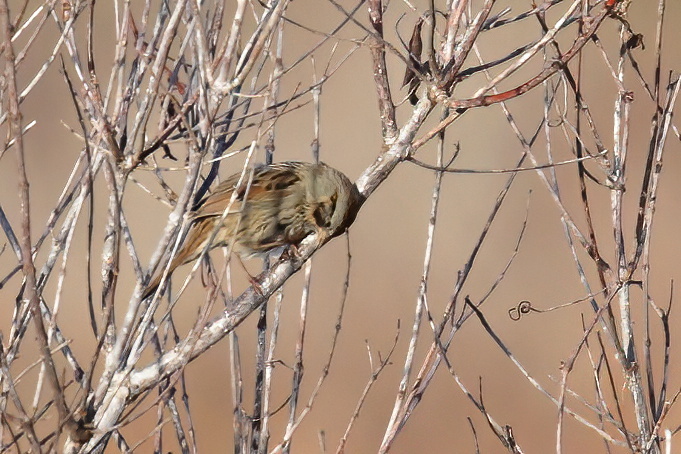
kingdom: Animalia
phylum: Chordata
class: Aves
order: Passeriformes
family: Passerellidae
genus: Melospiza
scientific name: Melospiza georgiana
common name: Swamp sparrow
